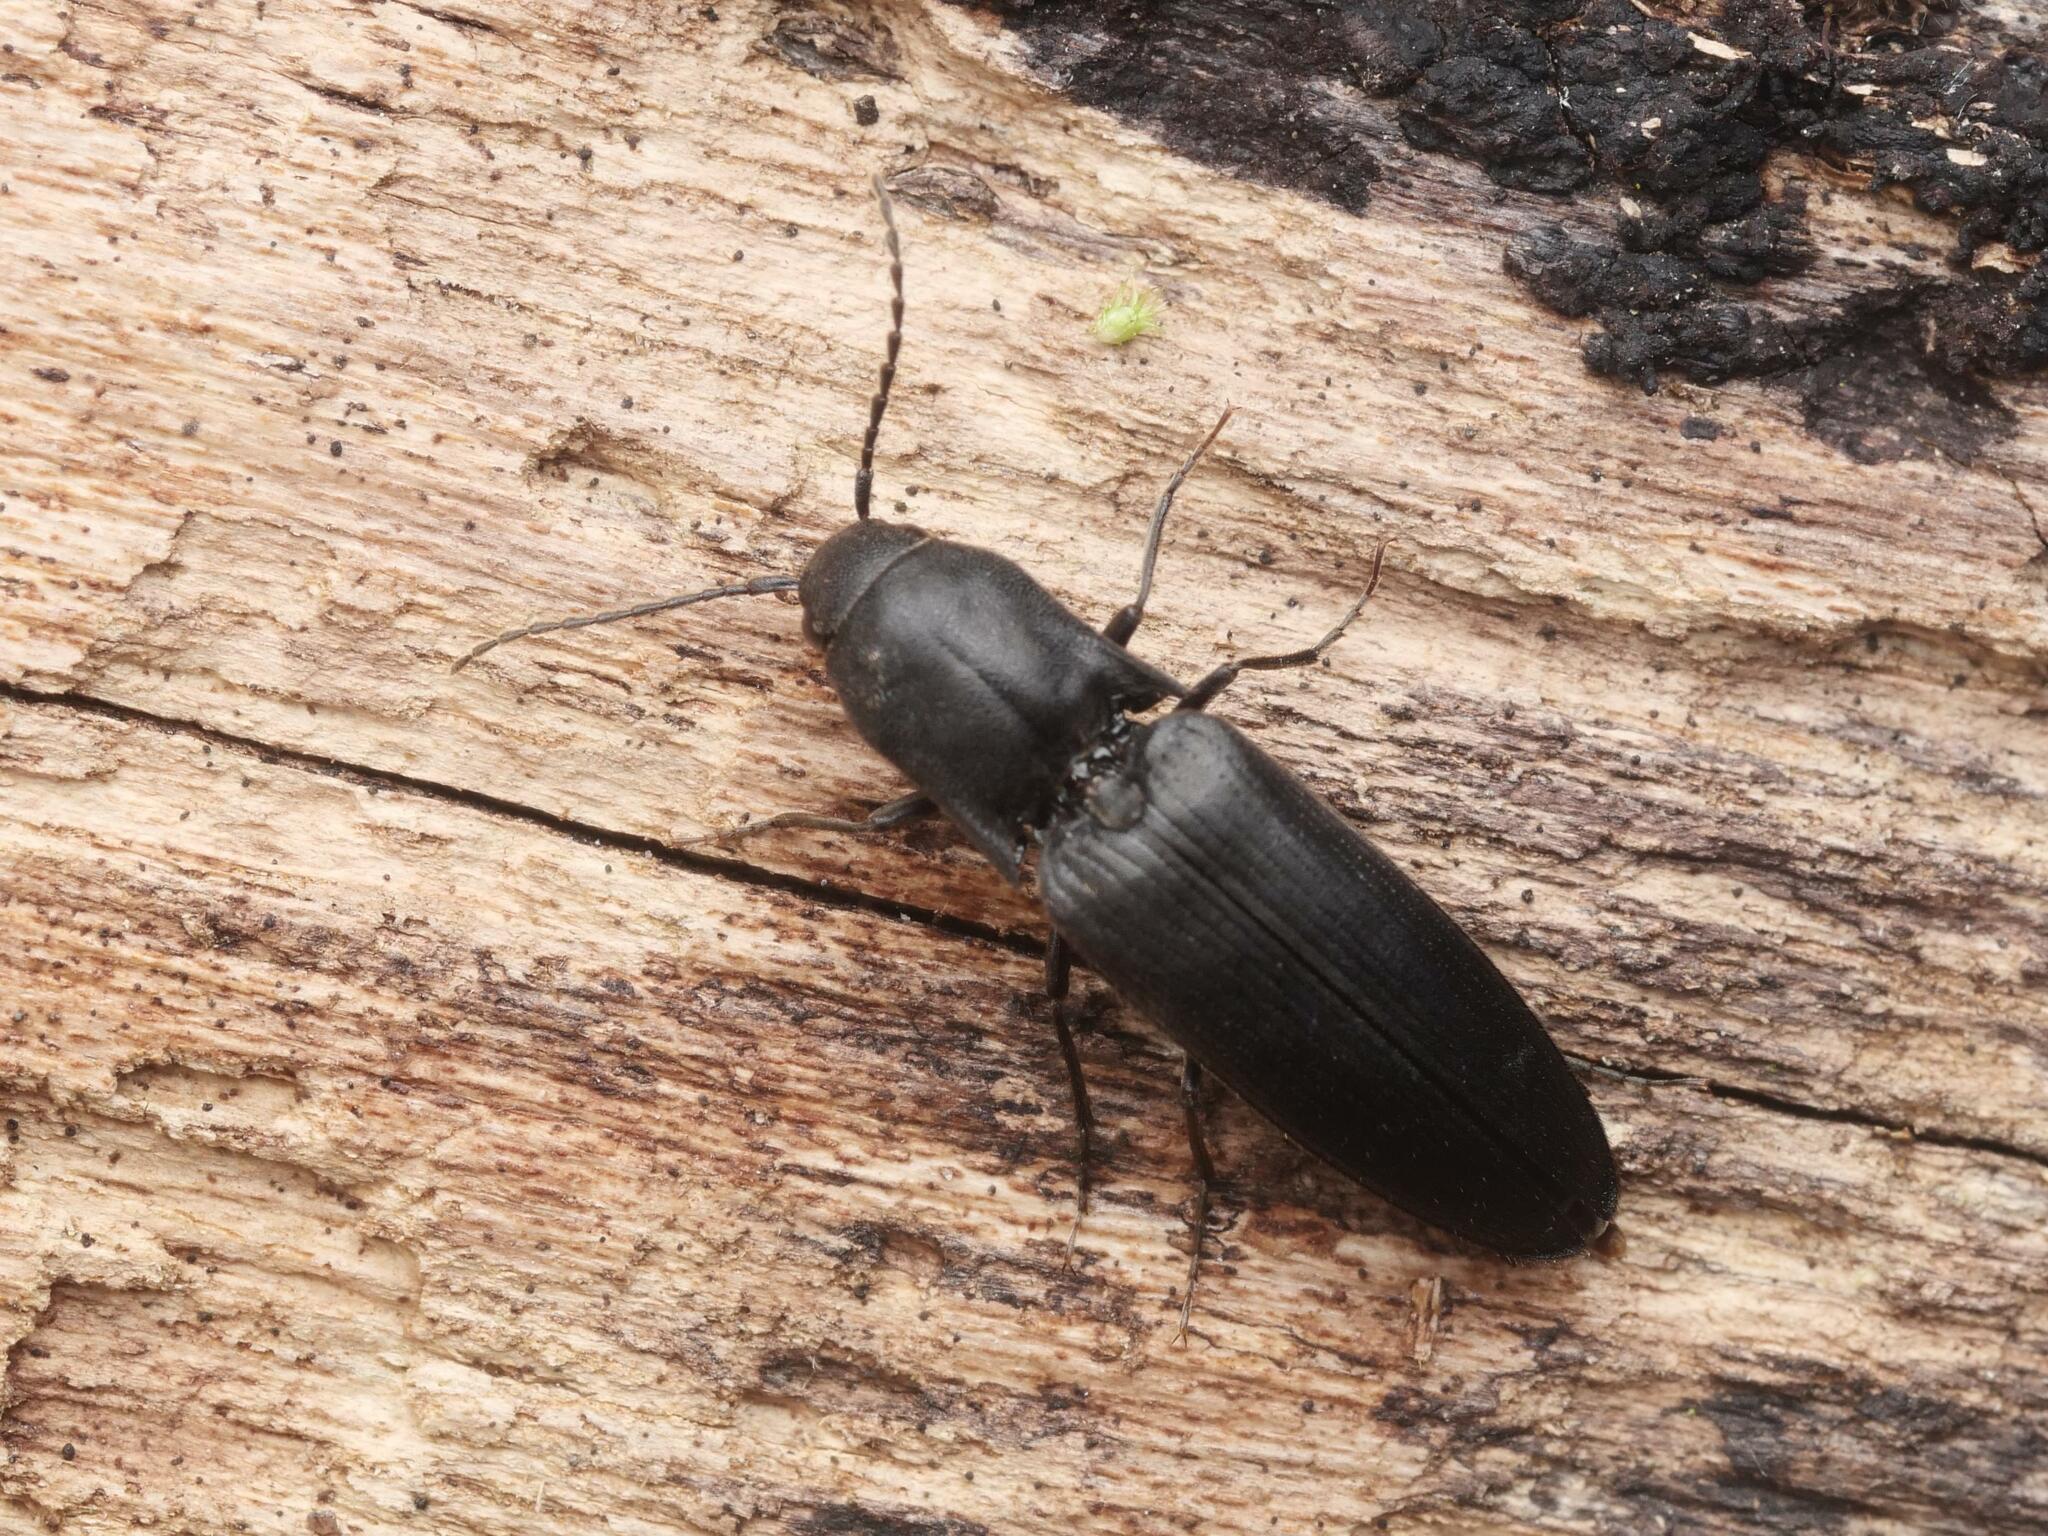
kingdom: Animalia
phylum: Arthropoda
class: Insecta
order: Coleoptera
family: Elateridae
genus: Ectinus
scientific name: Ectinus aterrimus
